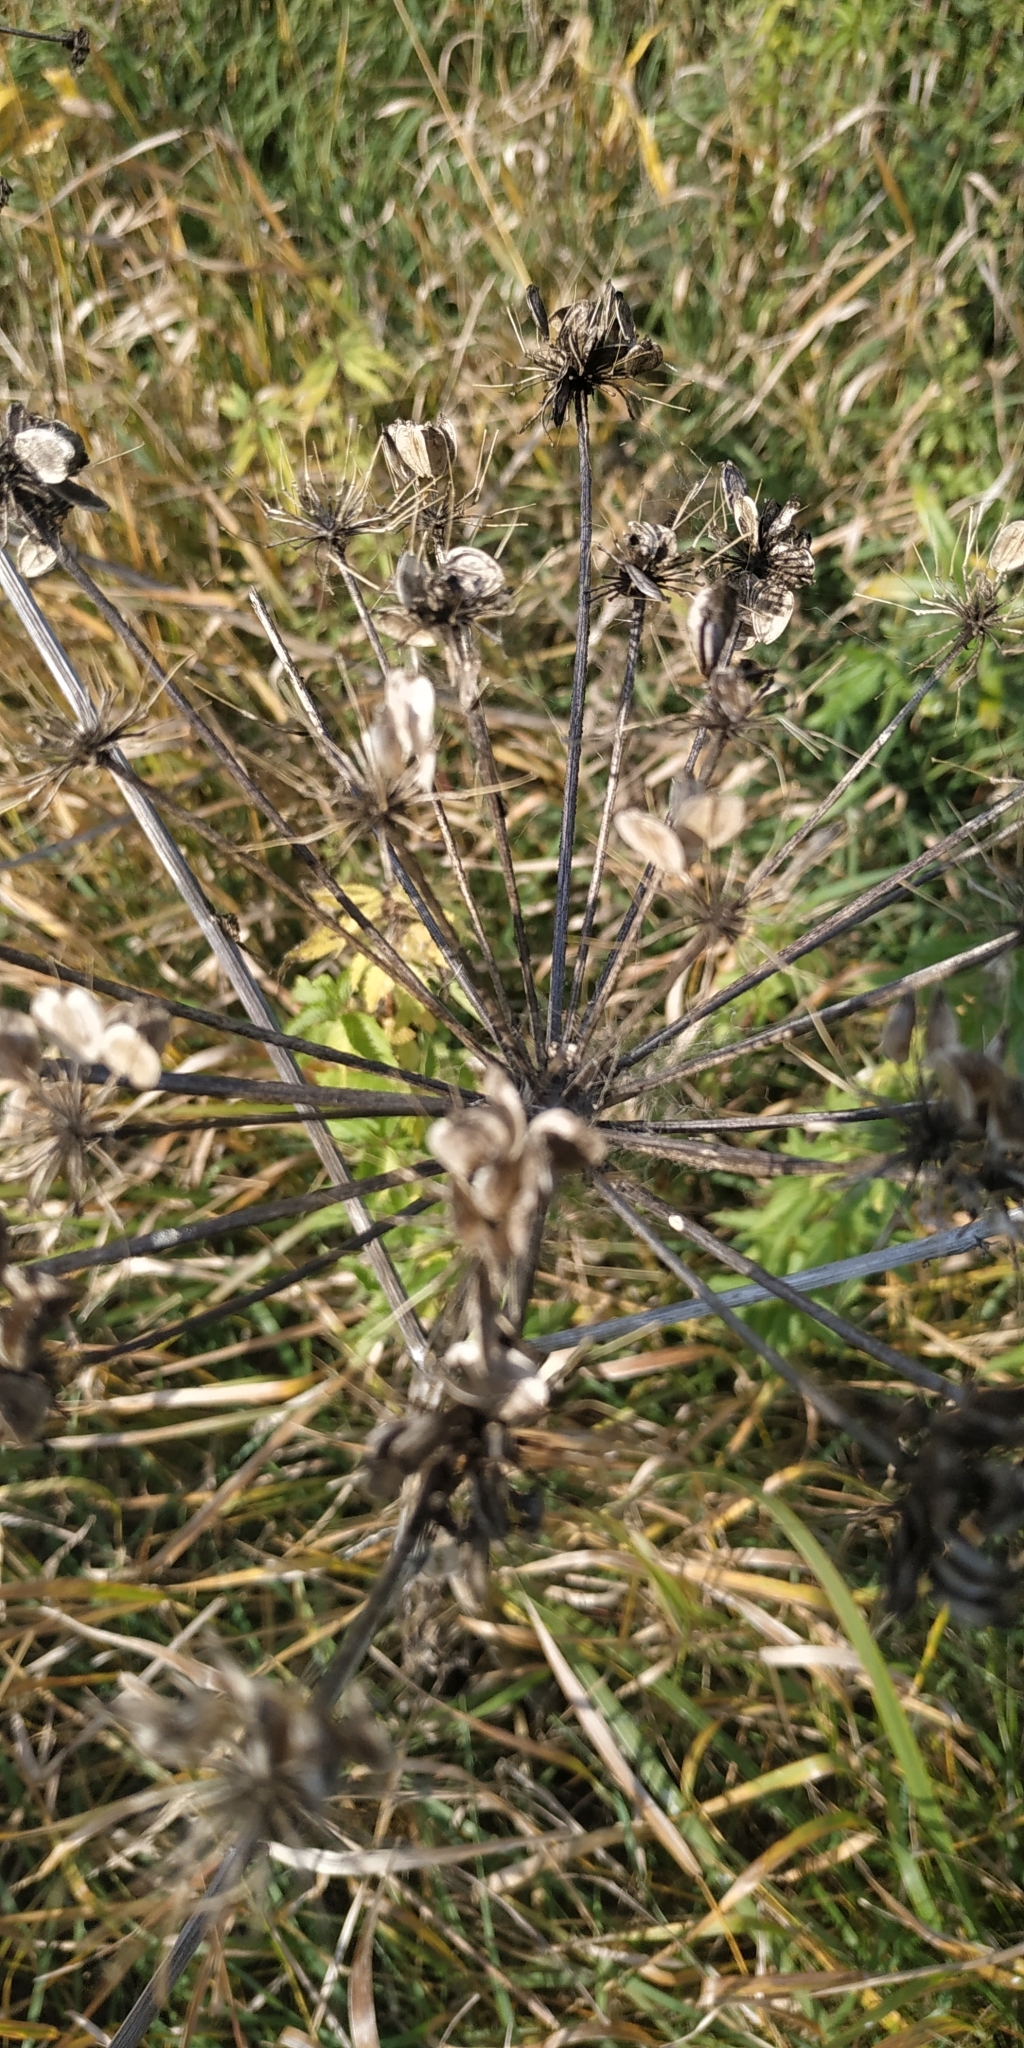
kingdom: Plantae
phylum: Tracheophyta
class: Magnoliopsida
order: Apiales
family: Apiaceae
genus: Heracleum
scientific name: Heracleum sphondylium
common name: Hogweed
